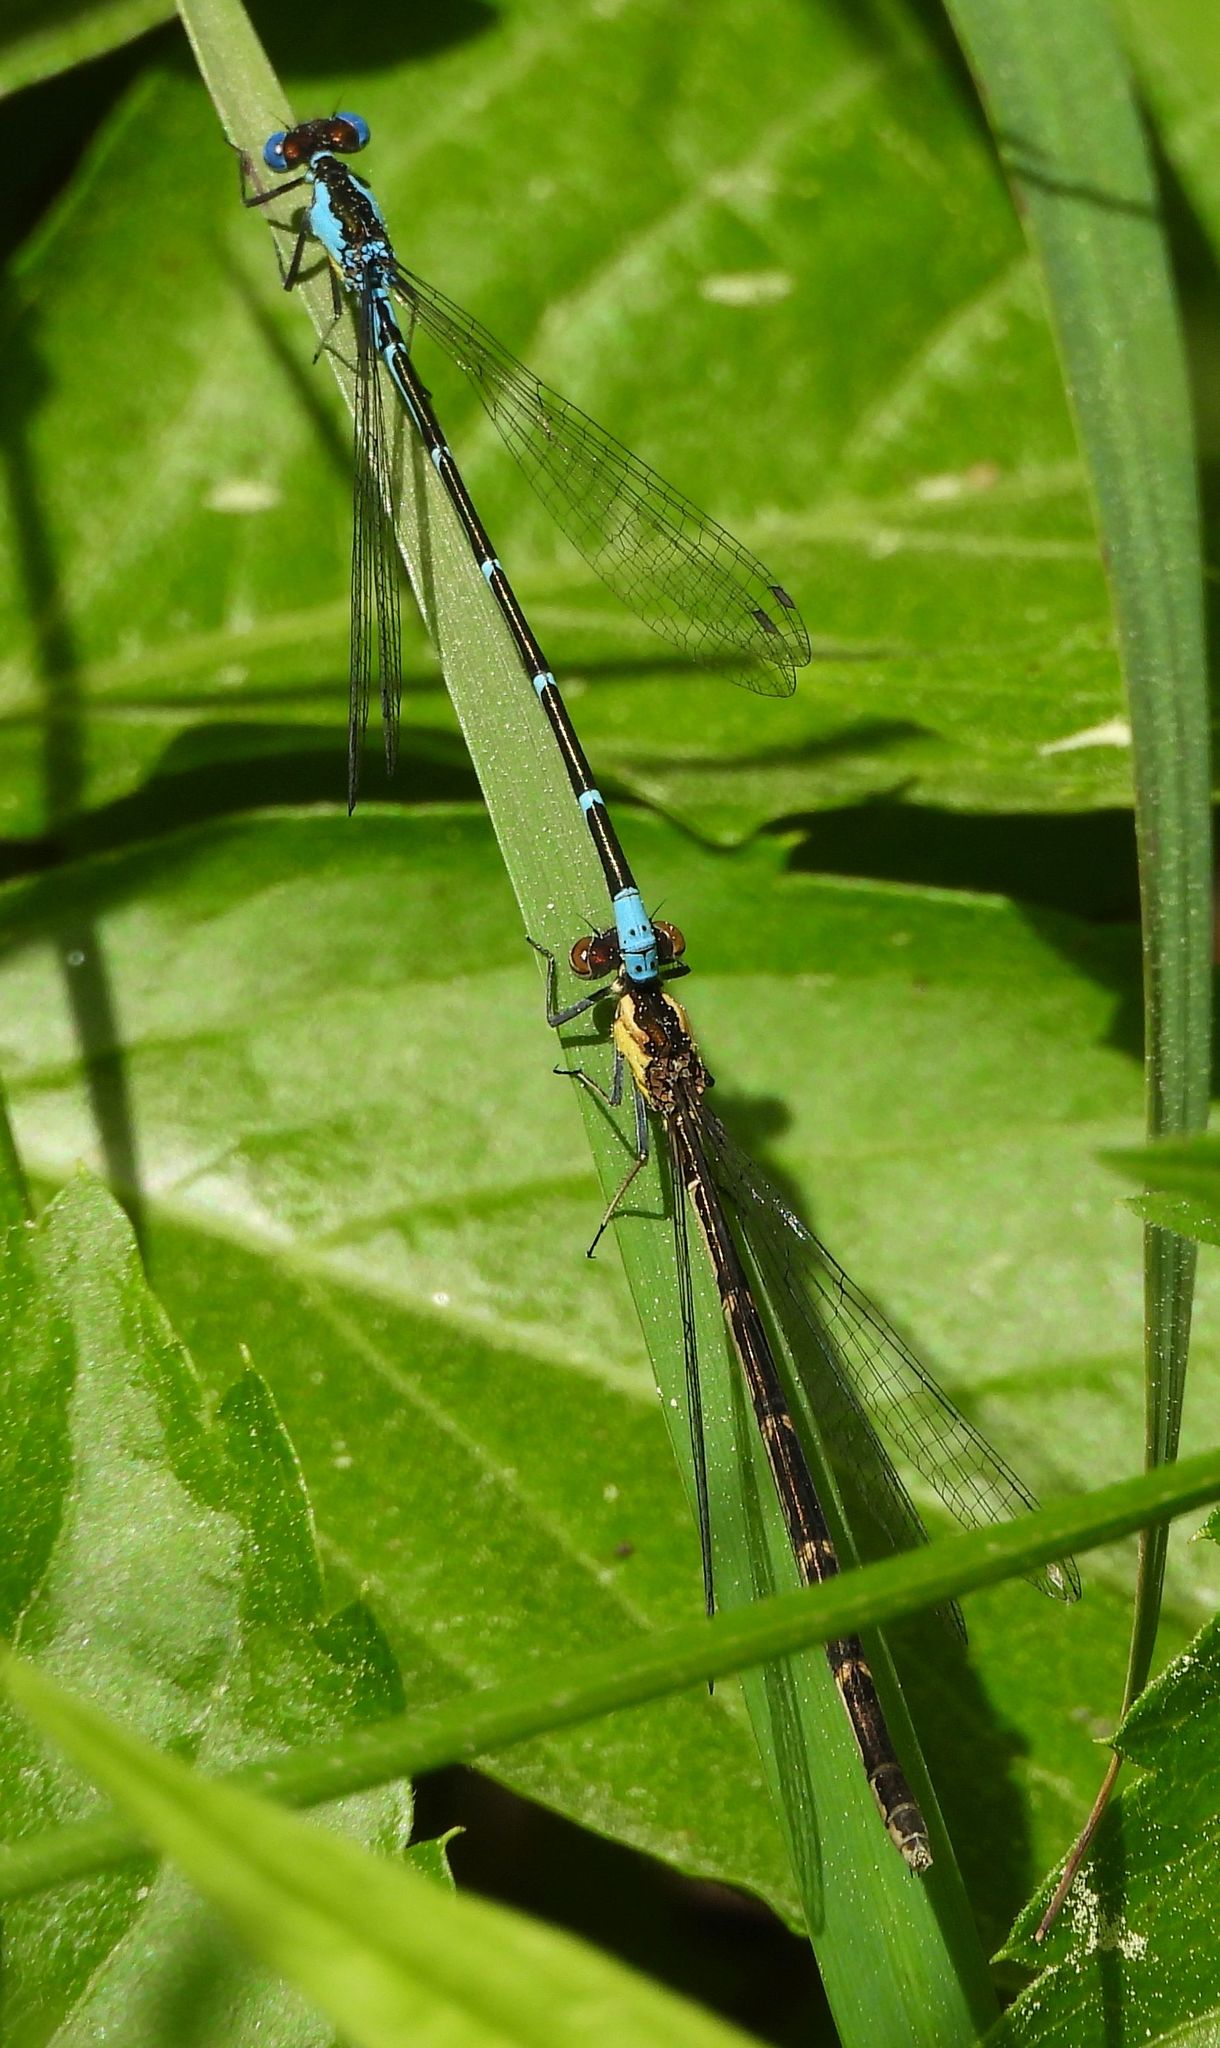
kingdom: Animalia
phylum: Arthropoda
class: Insecta
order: Odonata
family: Coenagrionidae
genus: Chromagrion
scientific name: Chromagrion conditum
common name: Aurora damsel
